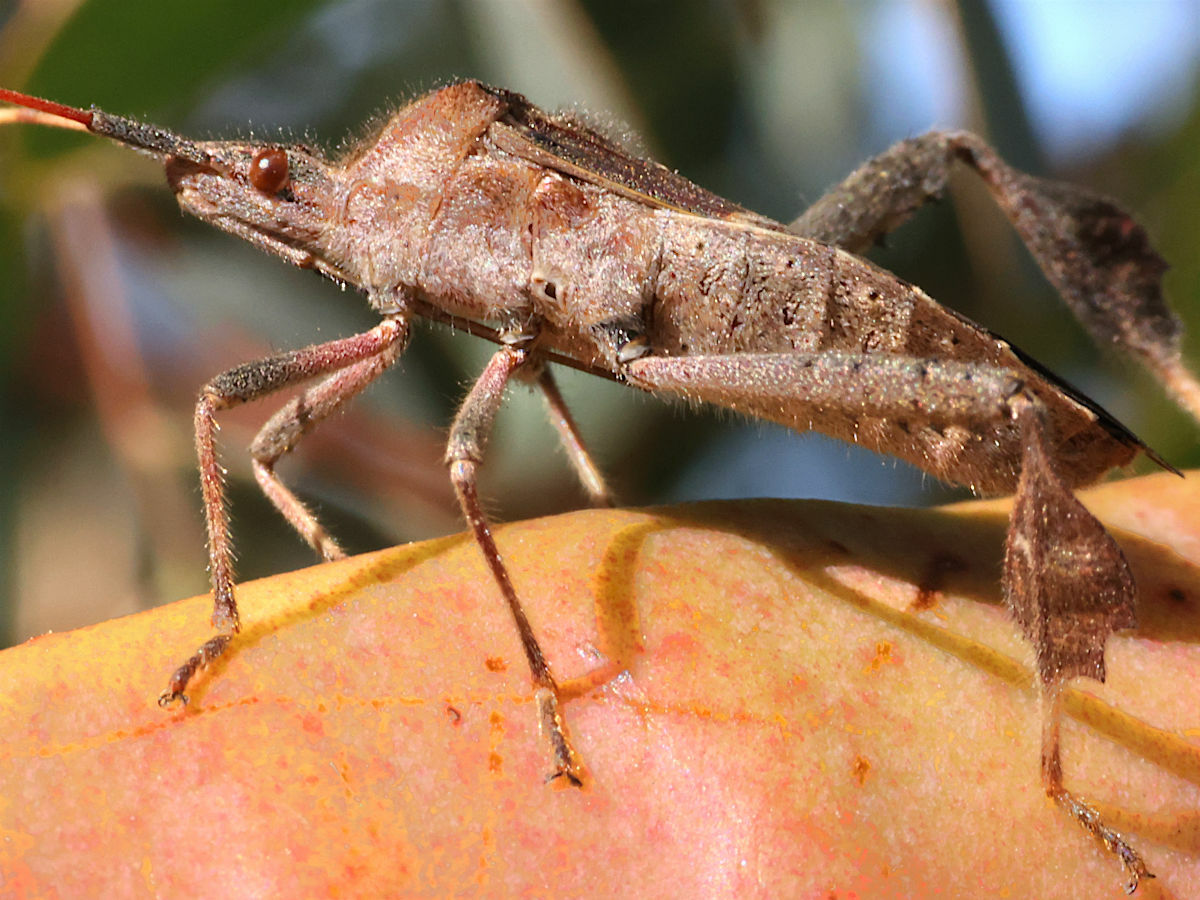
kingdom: Animalia
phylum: Arthropoda
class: Insecta
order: Hemiptera
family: Coreidae
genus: Leptoglossus
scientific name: Leptoglossus zonatus
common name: Large-legged bug
